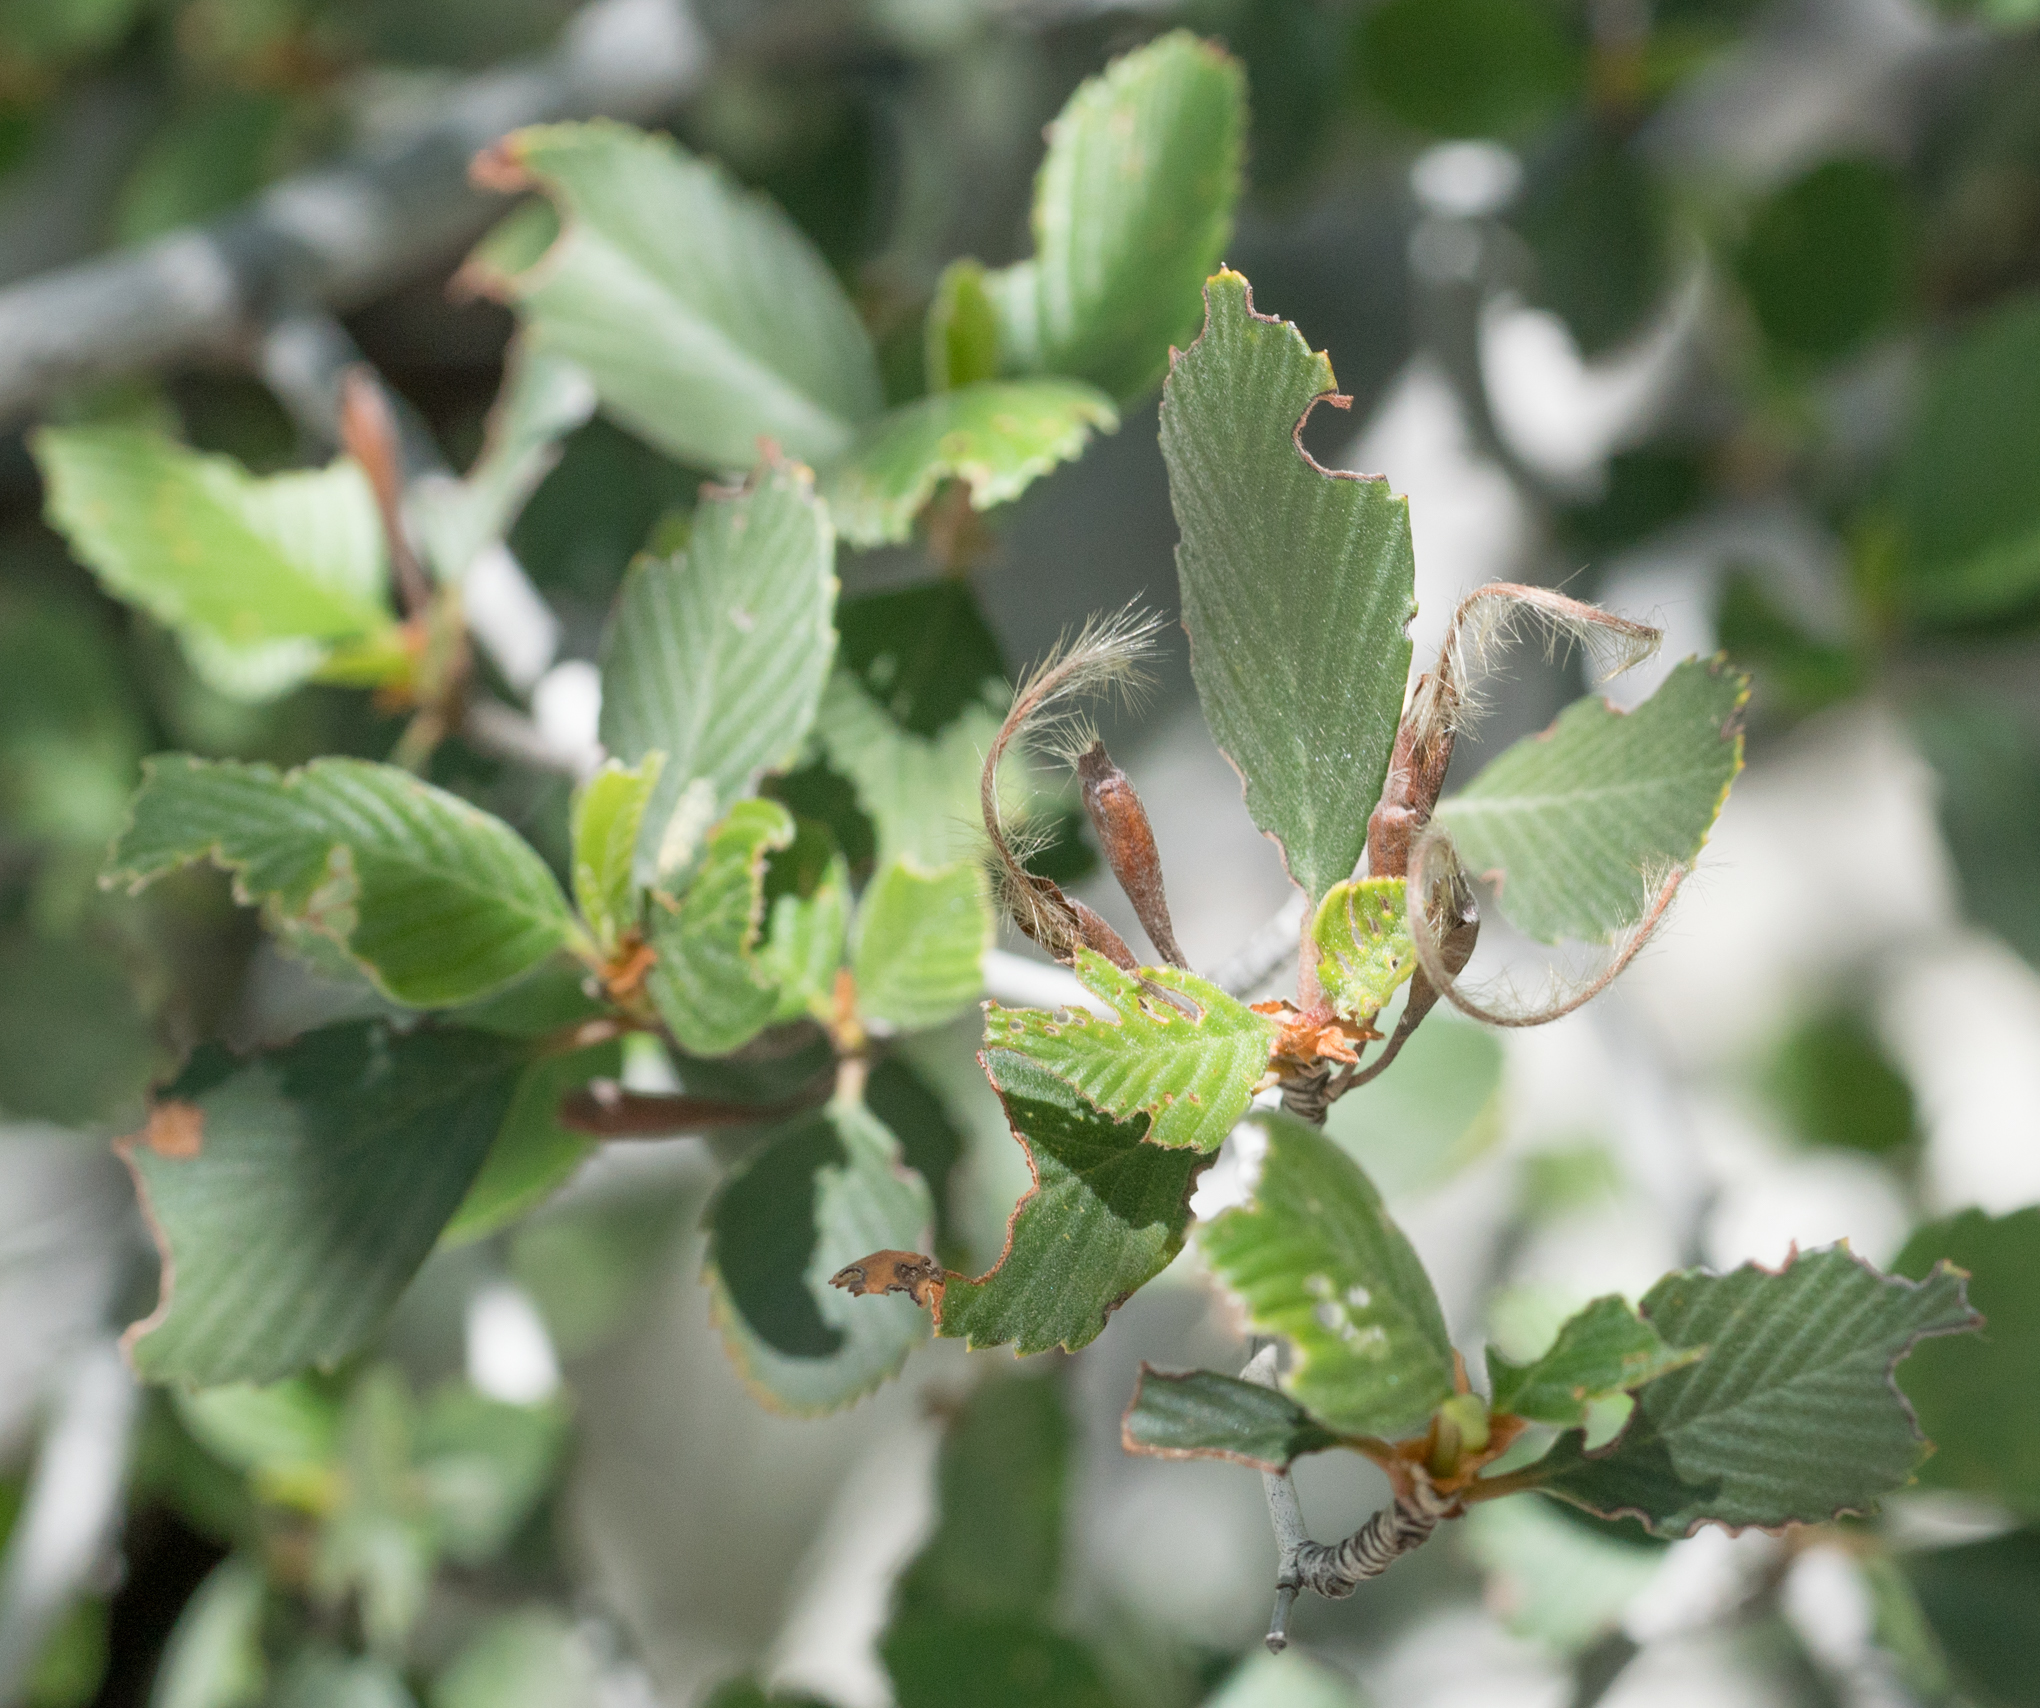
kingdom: Plantae
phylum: Tracheophyta
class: Magnoliopsida
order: Rosales
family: Rosaceae
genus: Cercocarpus
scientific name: Cercocarpus betuloides
